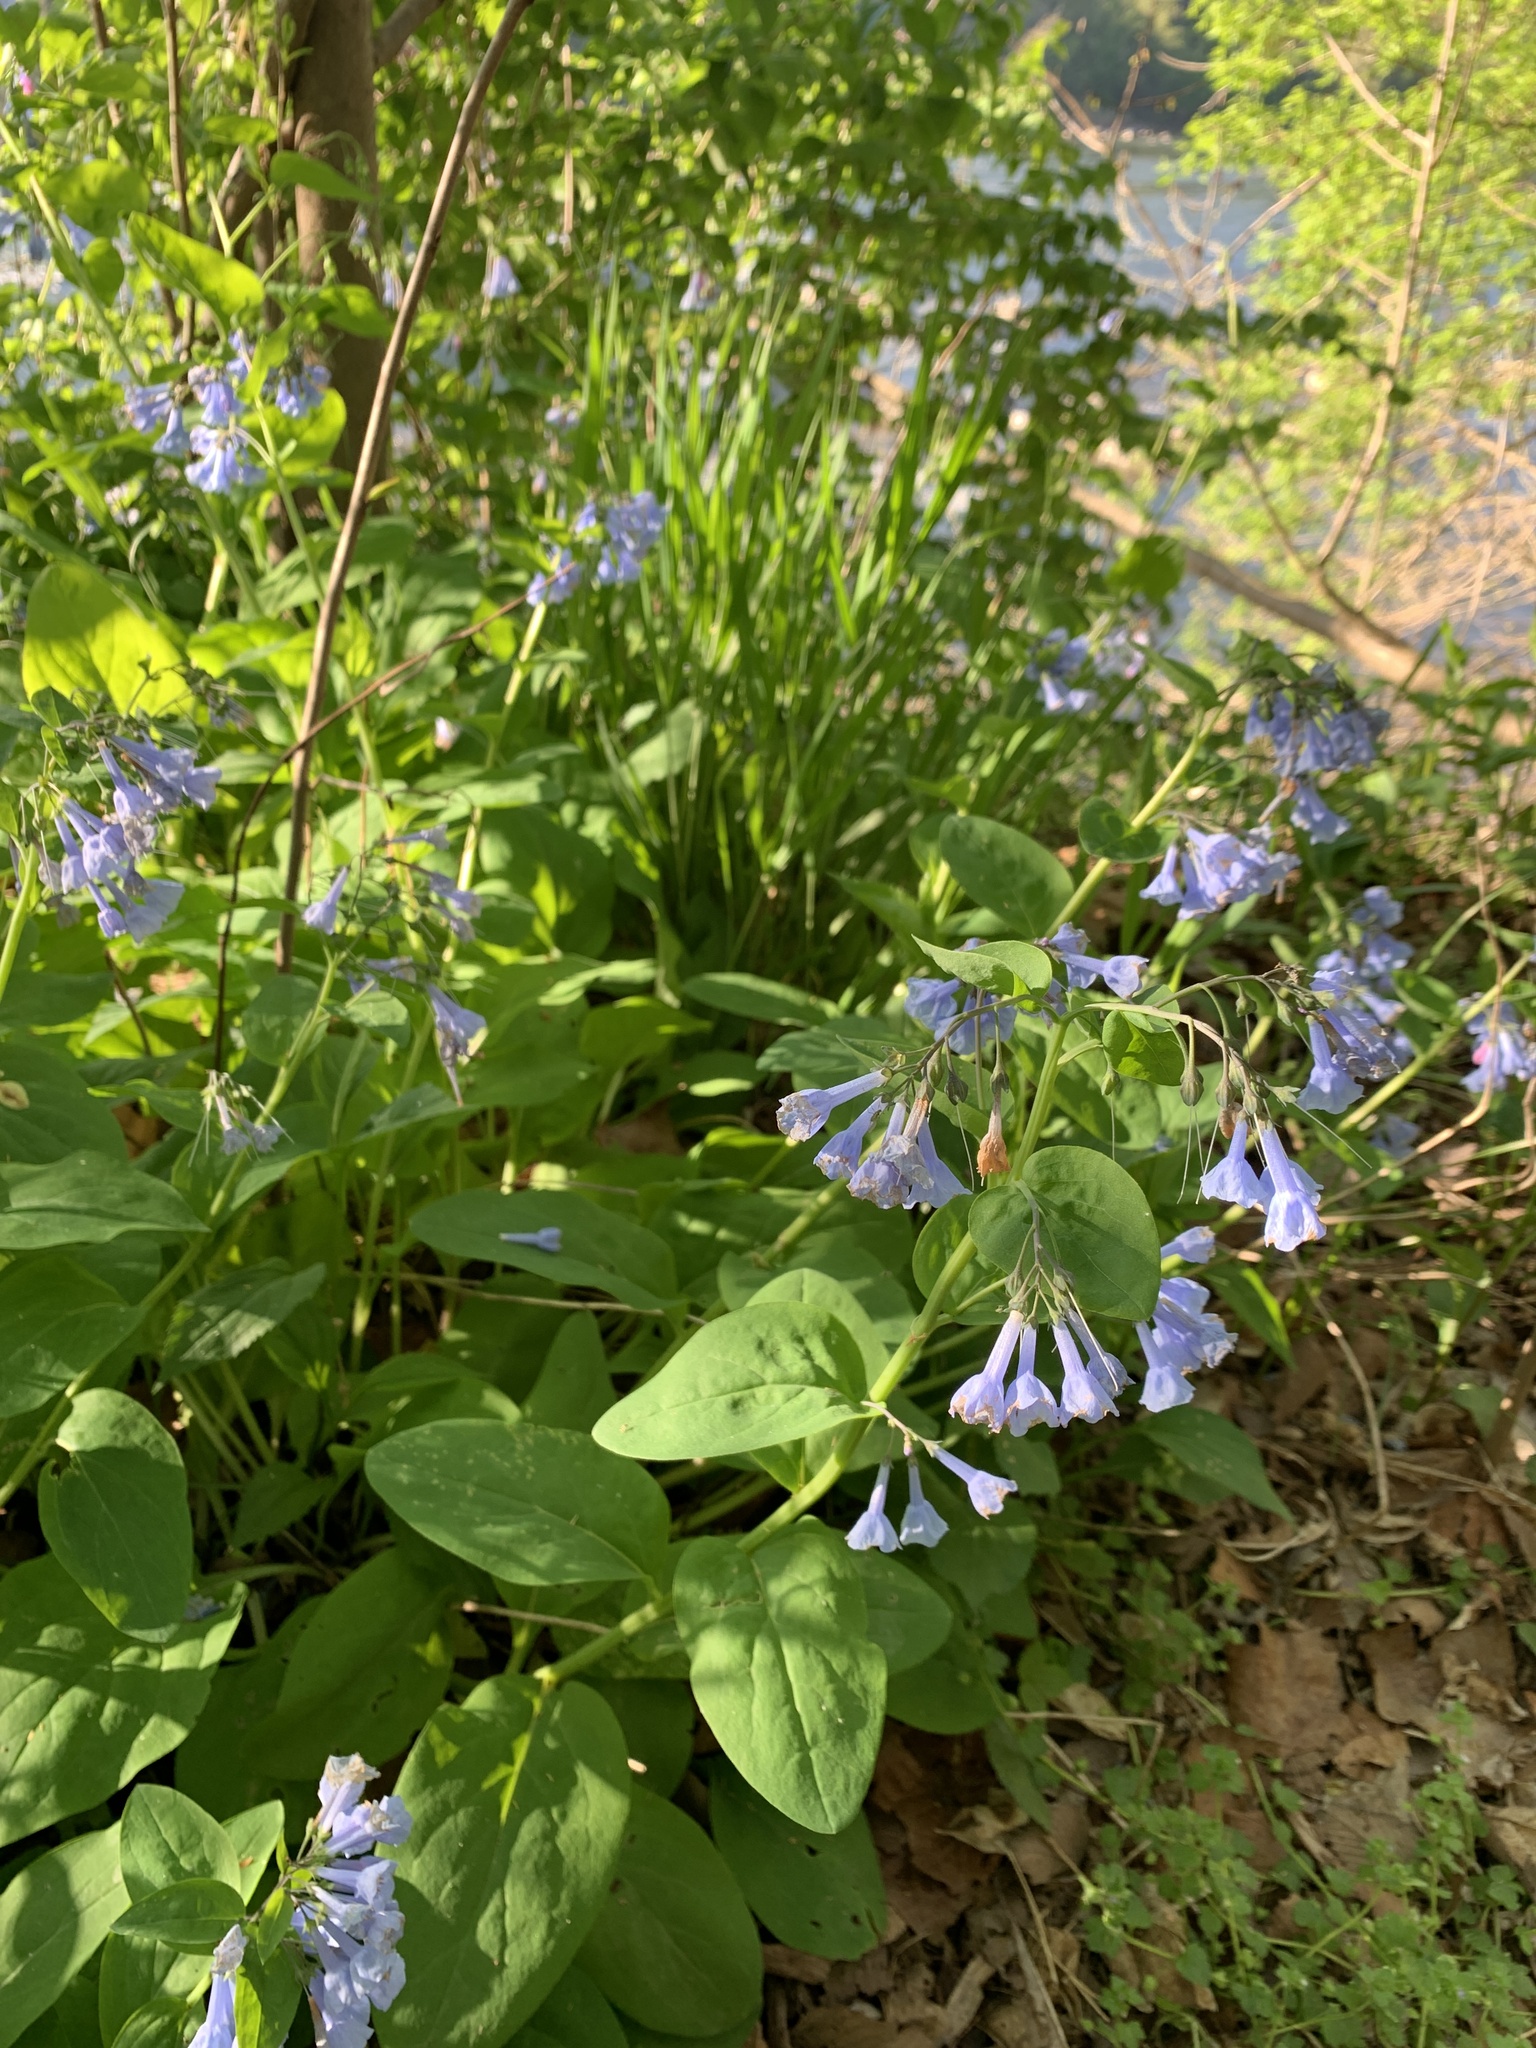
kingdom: Plantae
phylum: Tracheophyta
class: Magnoliopsida
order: Boraginales
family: Boraginaceae
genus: Mertensia
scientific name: Mertensia virginica
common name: Virginia bluebells
